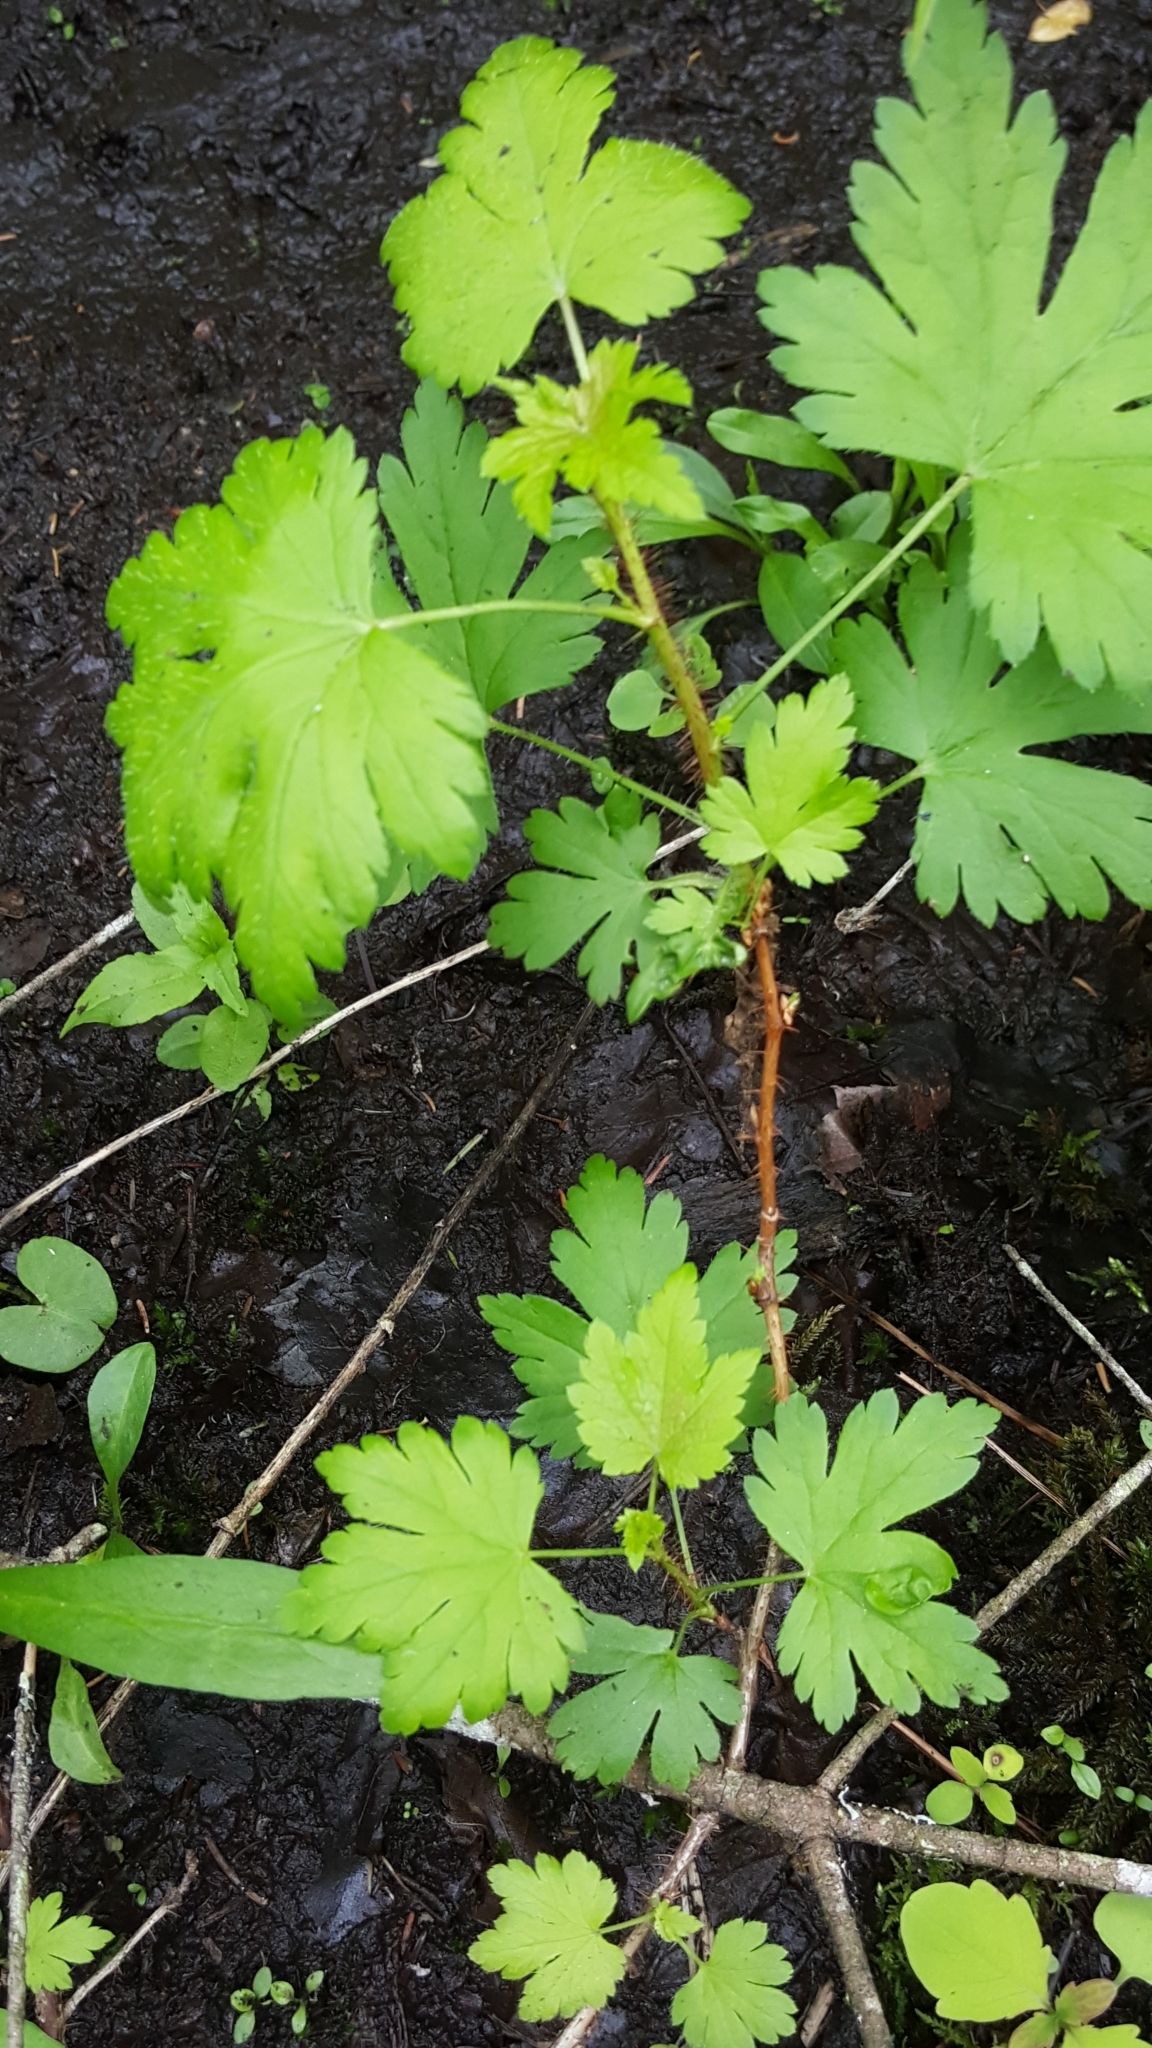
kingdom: Plantae
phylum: Tracheophyta
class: Magnoliopsida
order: Saxifragales
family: Grossulariaceae
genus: Ribes
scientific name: Ribes lacustre
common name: Black gooseberry
